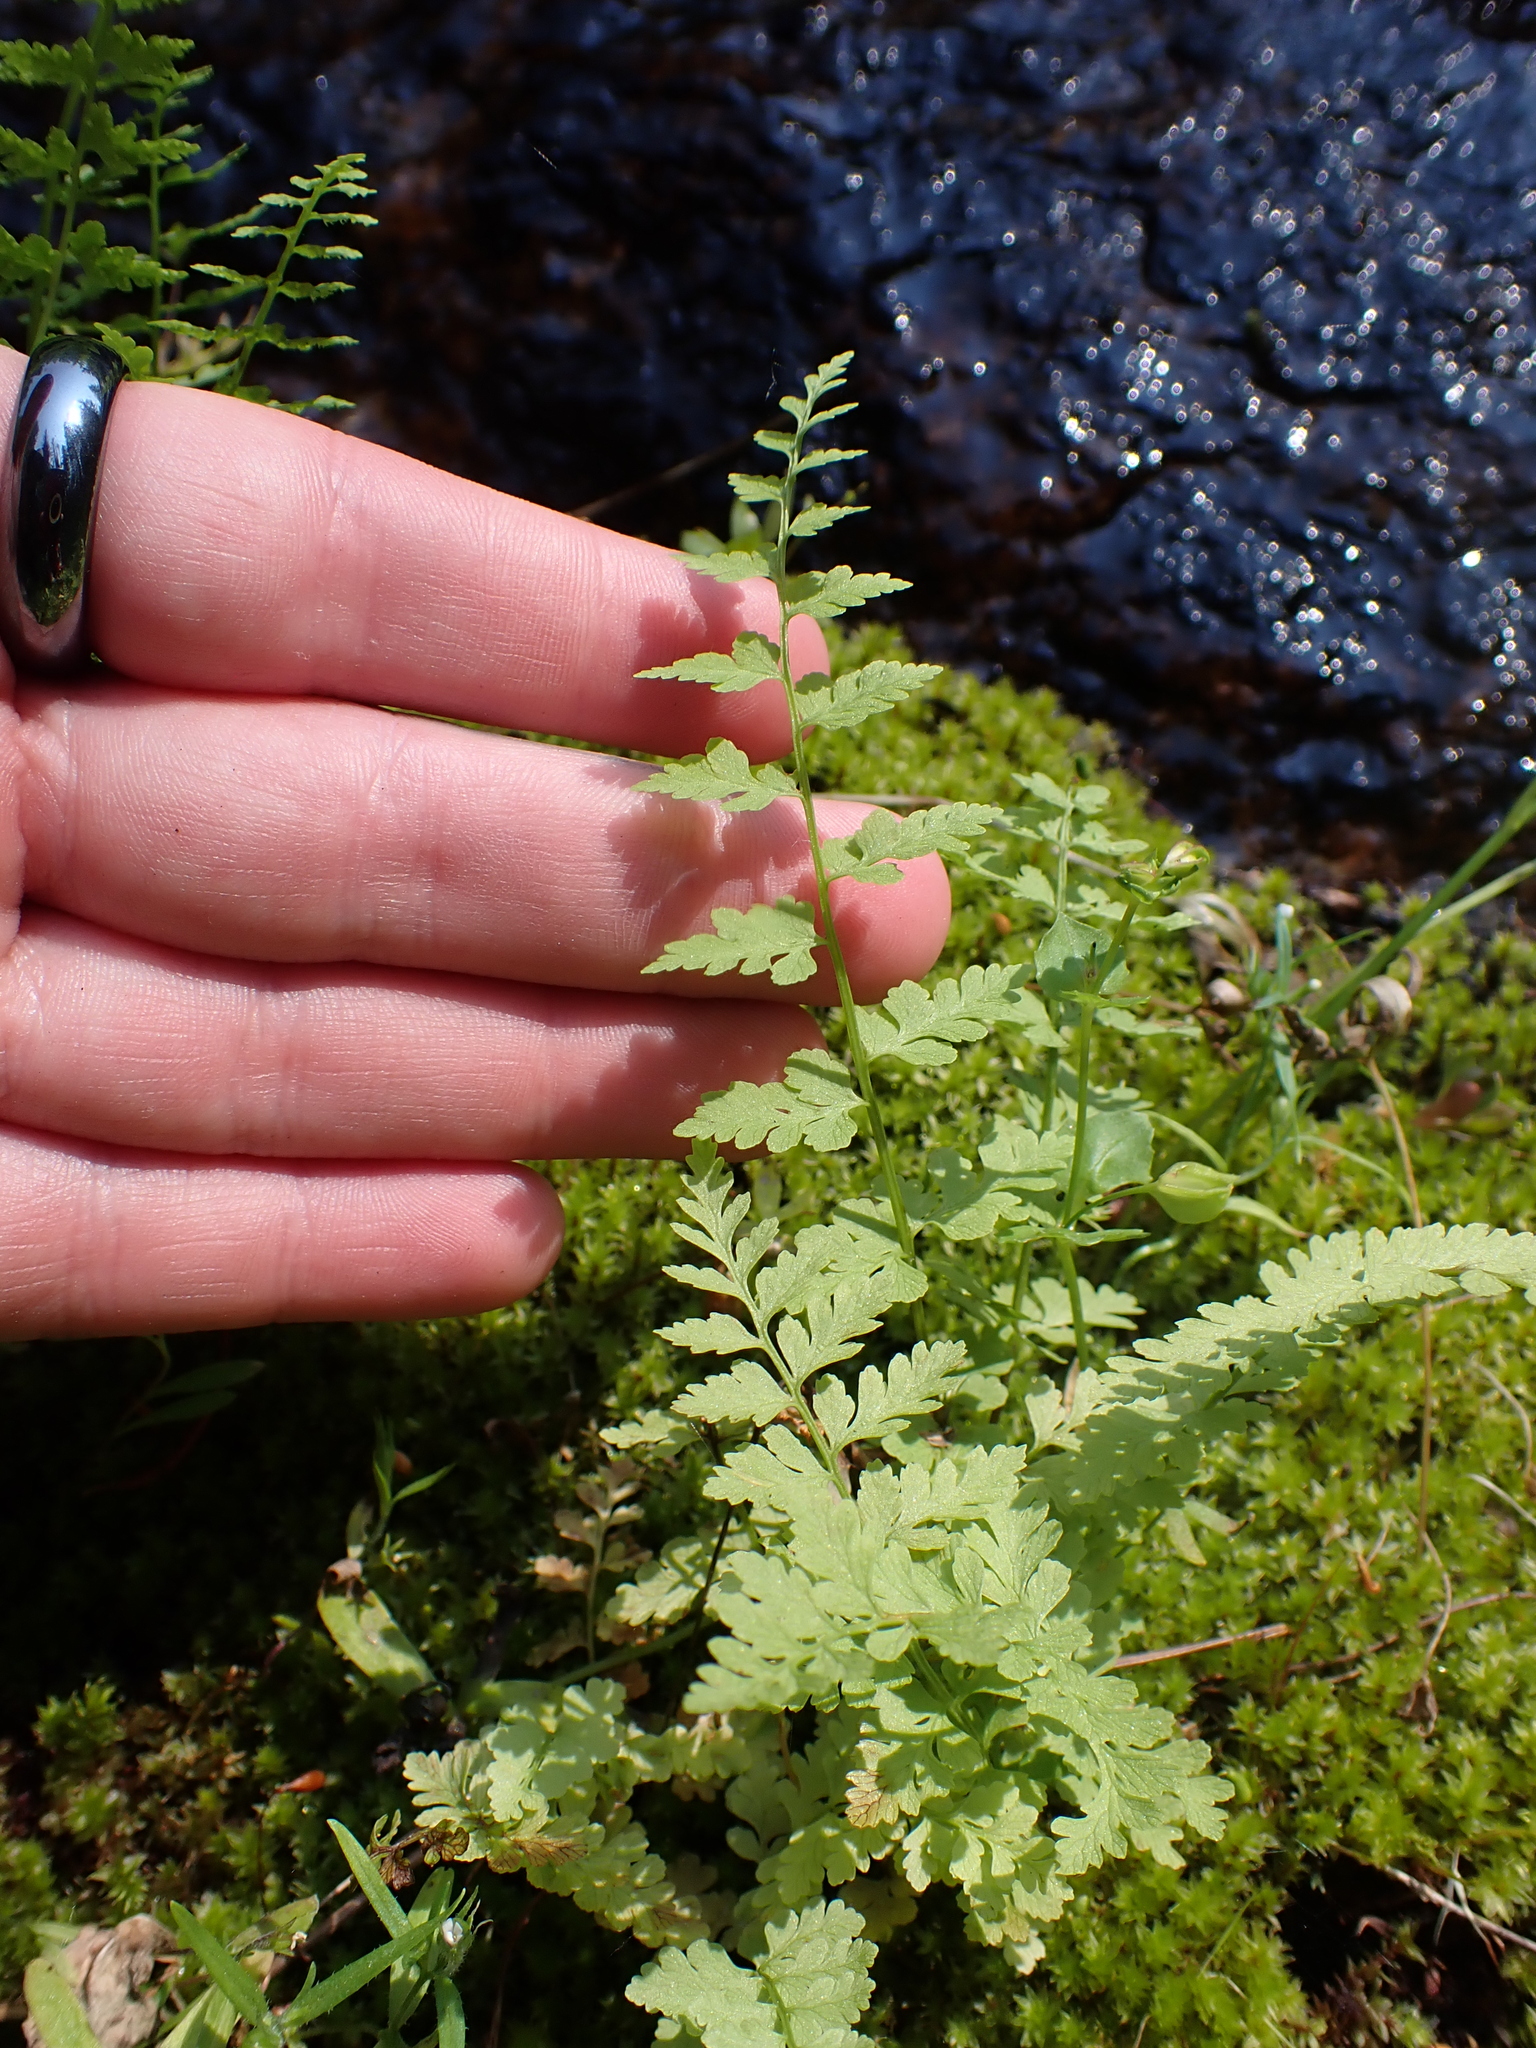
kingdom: Plantae
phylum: Tracheophyta
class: Polypodiopsida
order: Polypodiales
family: Cystopteridaceae
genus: Cystopteris
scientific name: Cystopteris fragilis
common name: Brittle bladder fern
